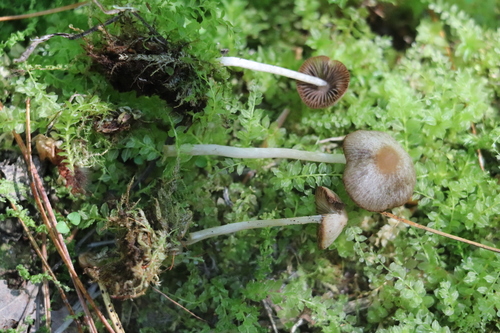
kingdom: Fungi
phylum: Basidiomycota
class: Agaricomycetes
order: Agaricales
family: Psathyrellaceae
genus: Psathyrella
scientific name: Psathyrella
